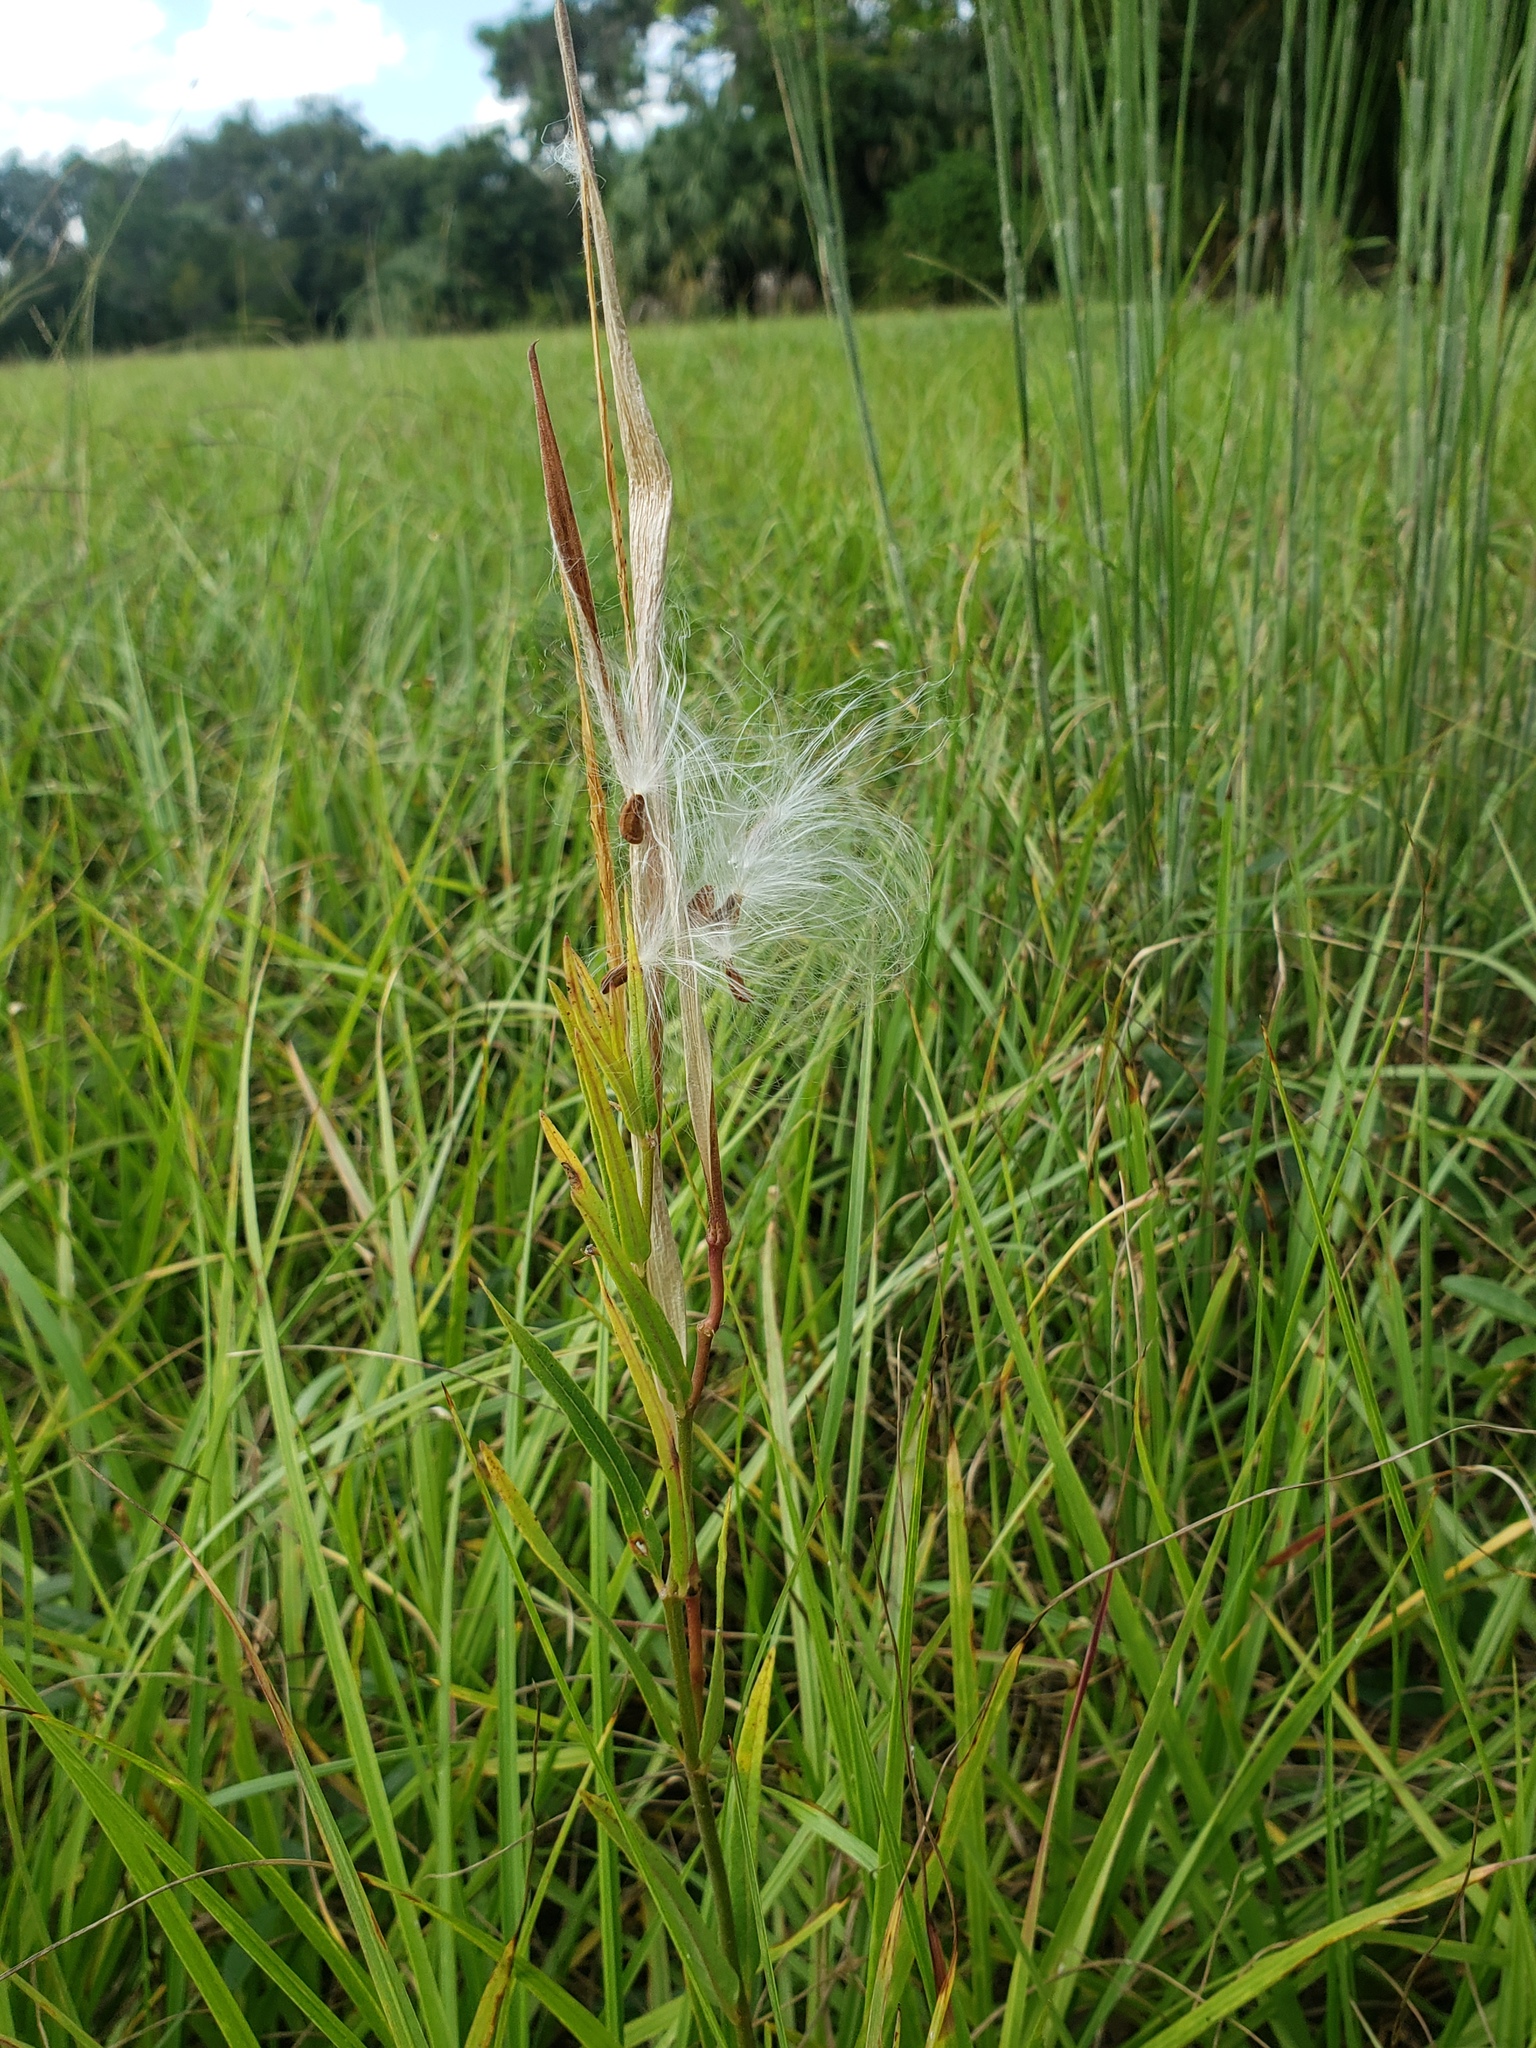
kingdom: Plantae
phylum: Tracheophyta
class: Magnoliopsida
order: Gentianales
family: Apocynaceae
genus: Asclepias
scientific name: Asclepias pedicellata
